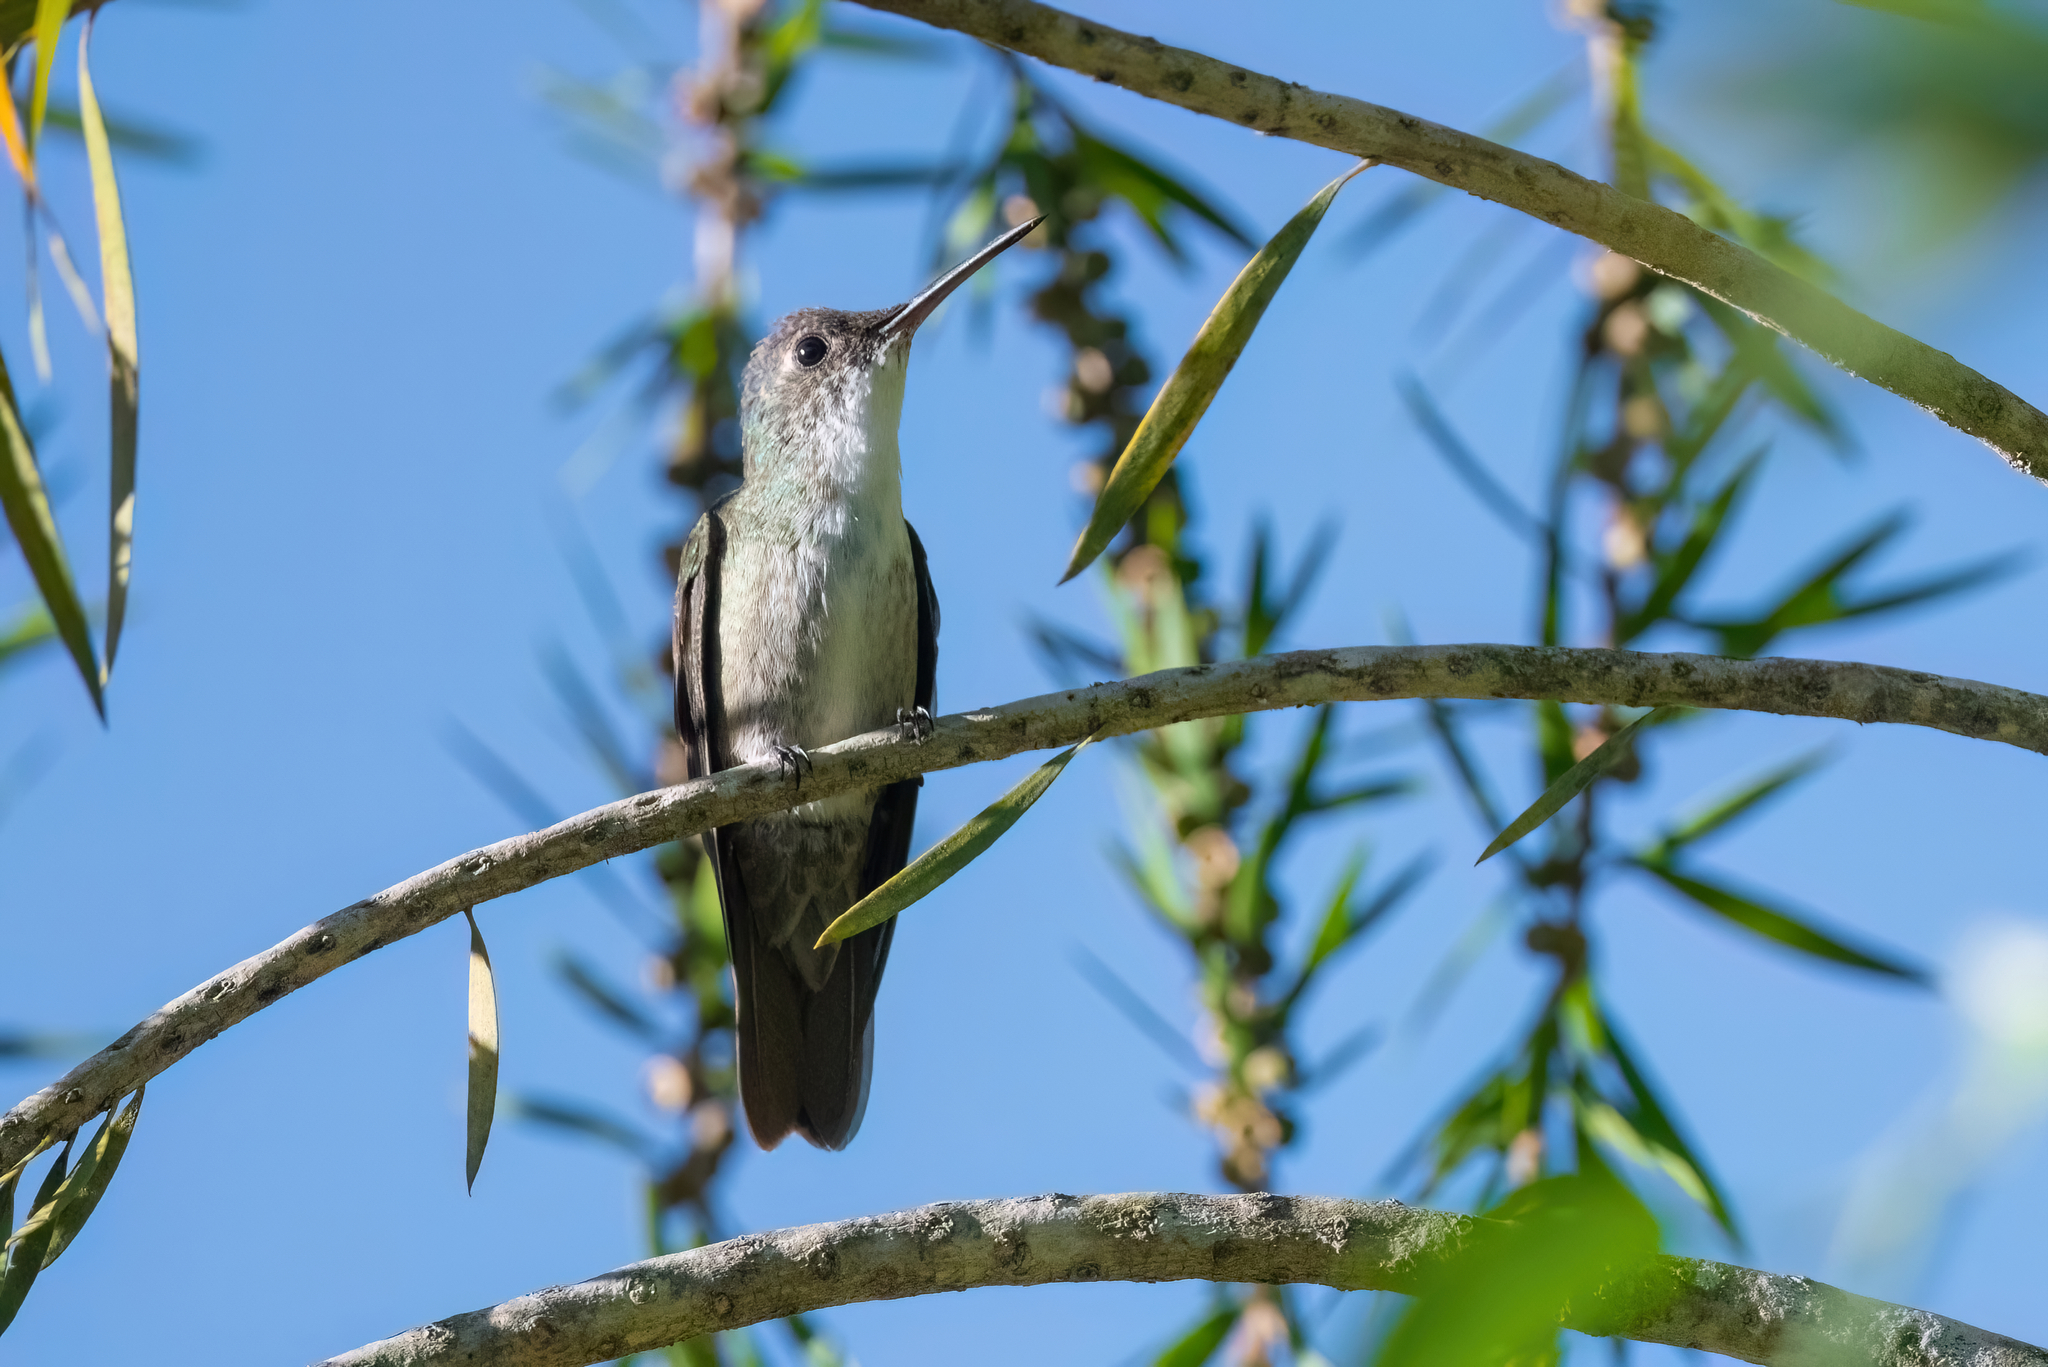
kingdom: Animalia
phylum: Chordata
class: Aves
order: Apodiformes
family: Trochilidae
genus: Saucerottia
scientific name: Saucerottia cyanocephala
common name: Azure-crowned hummingbird
